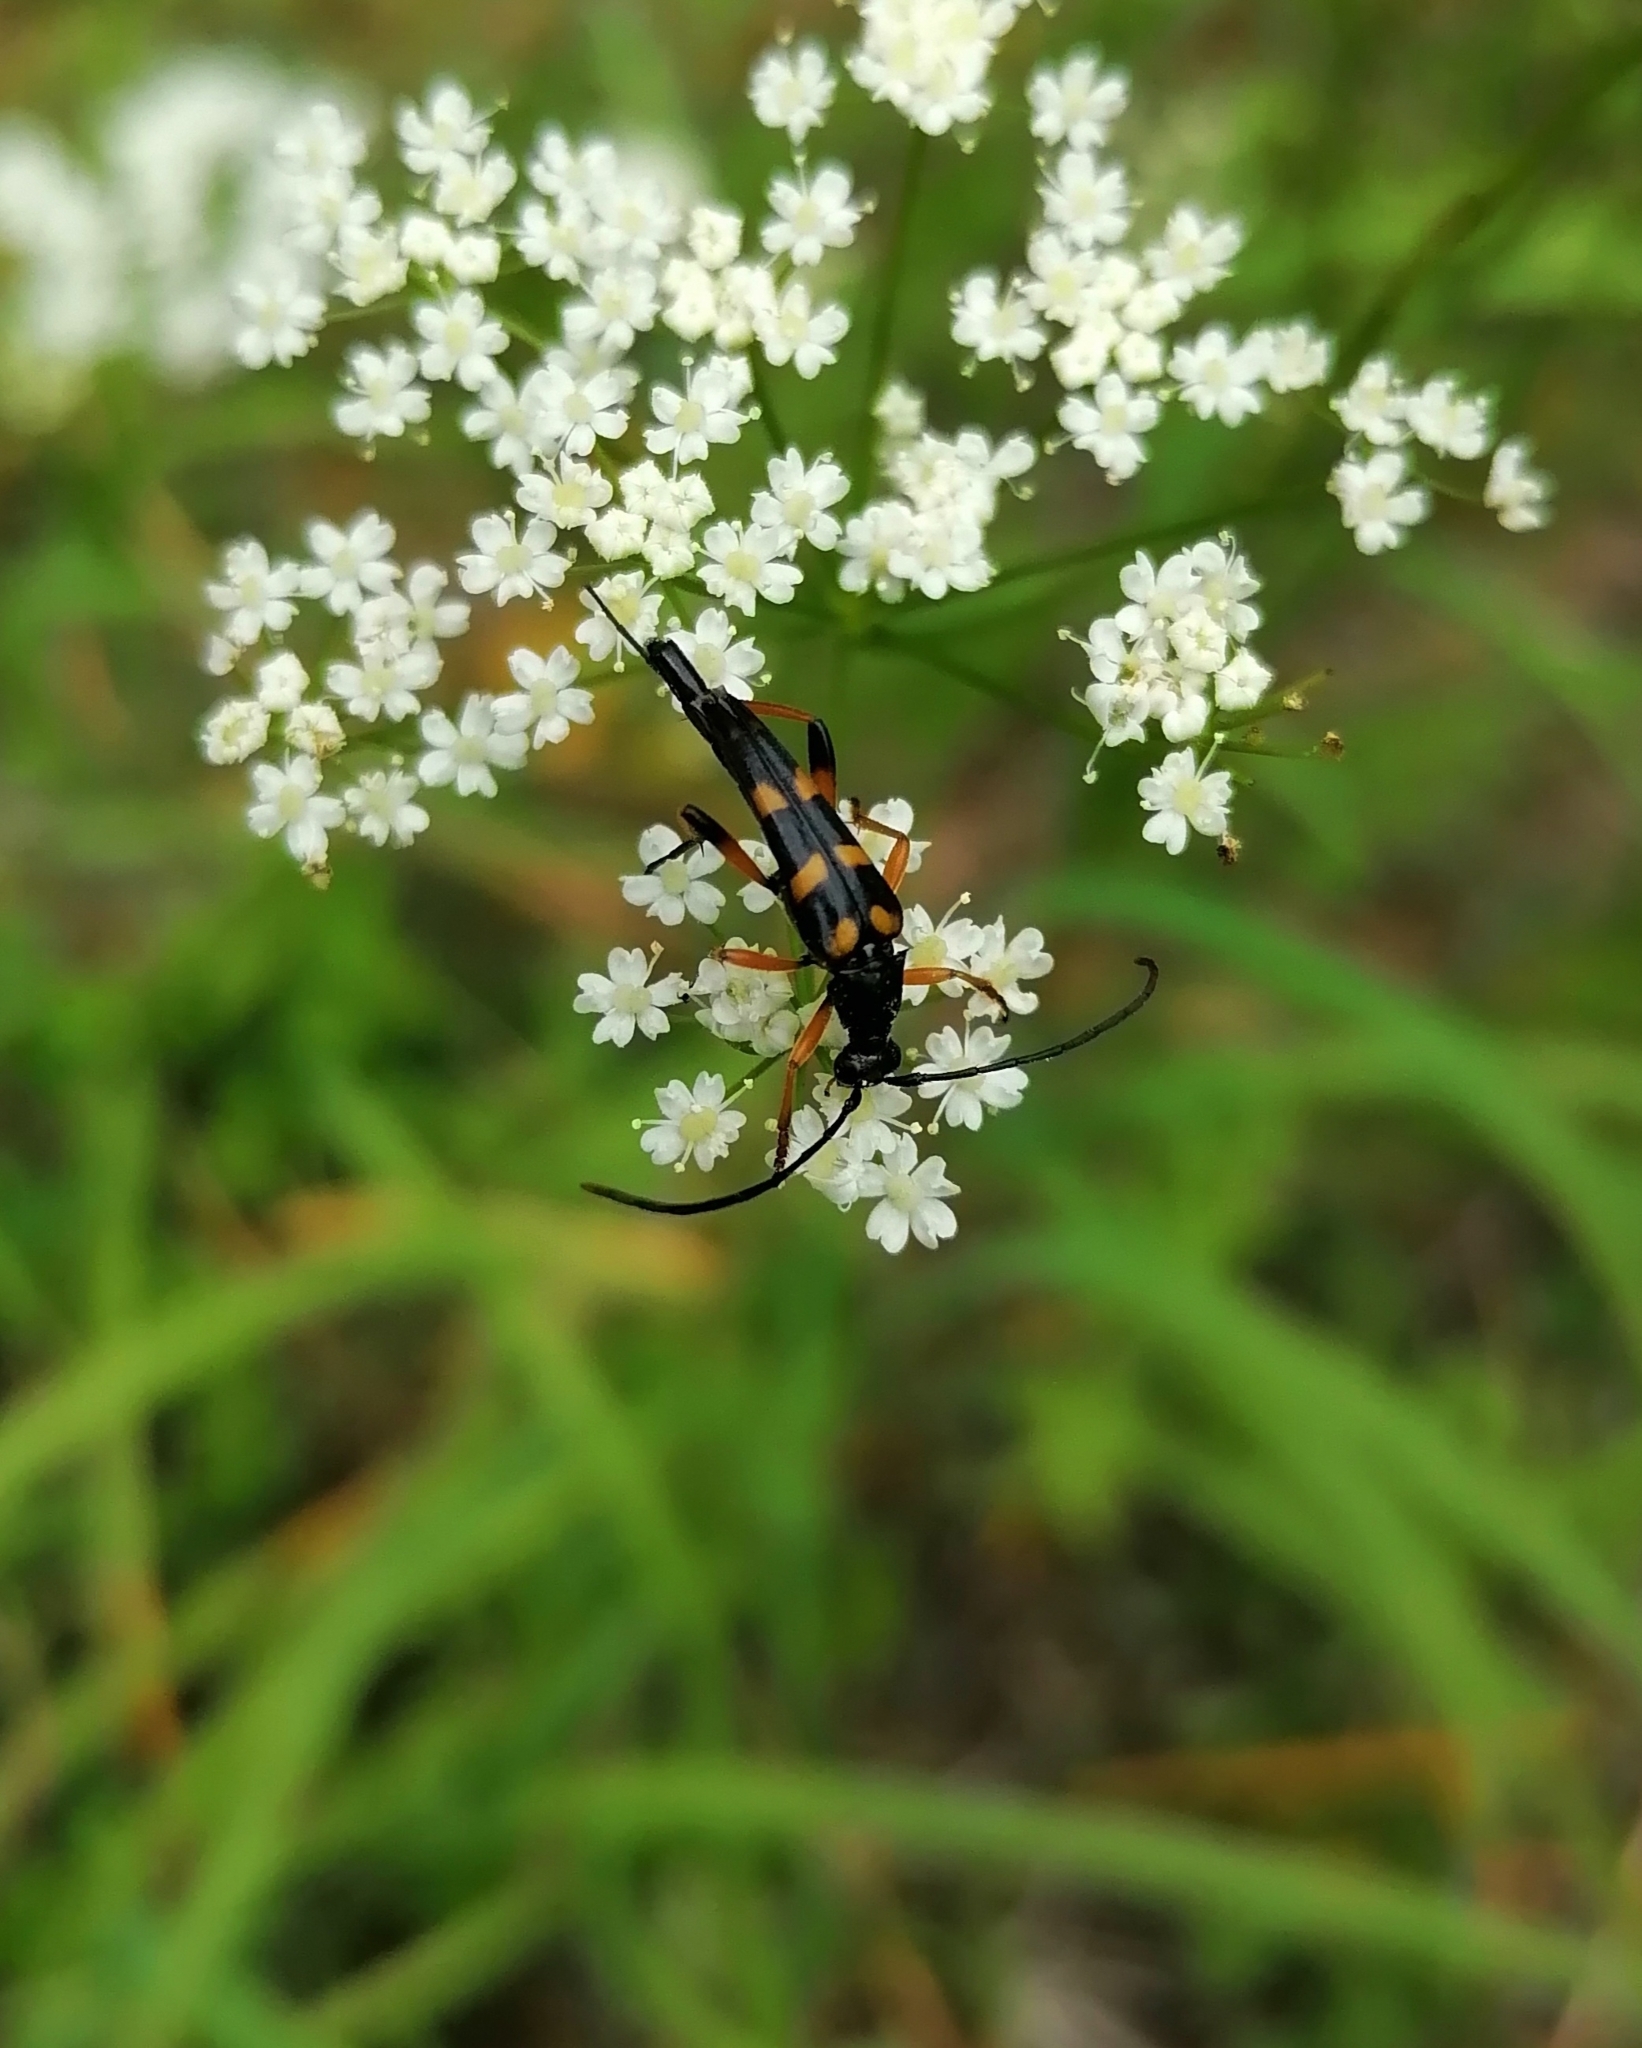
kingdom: Animalia
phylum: Arthropoda
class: Insecta
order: Coleoptera
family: Cerambycidae
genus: Strangalia
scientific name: Strangalia attenuata
